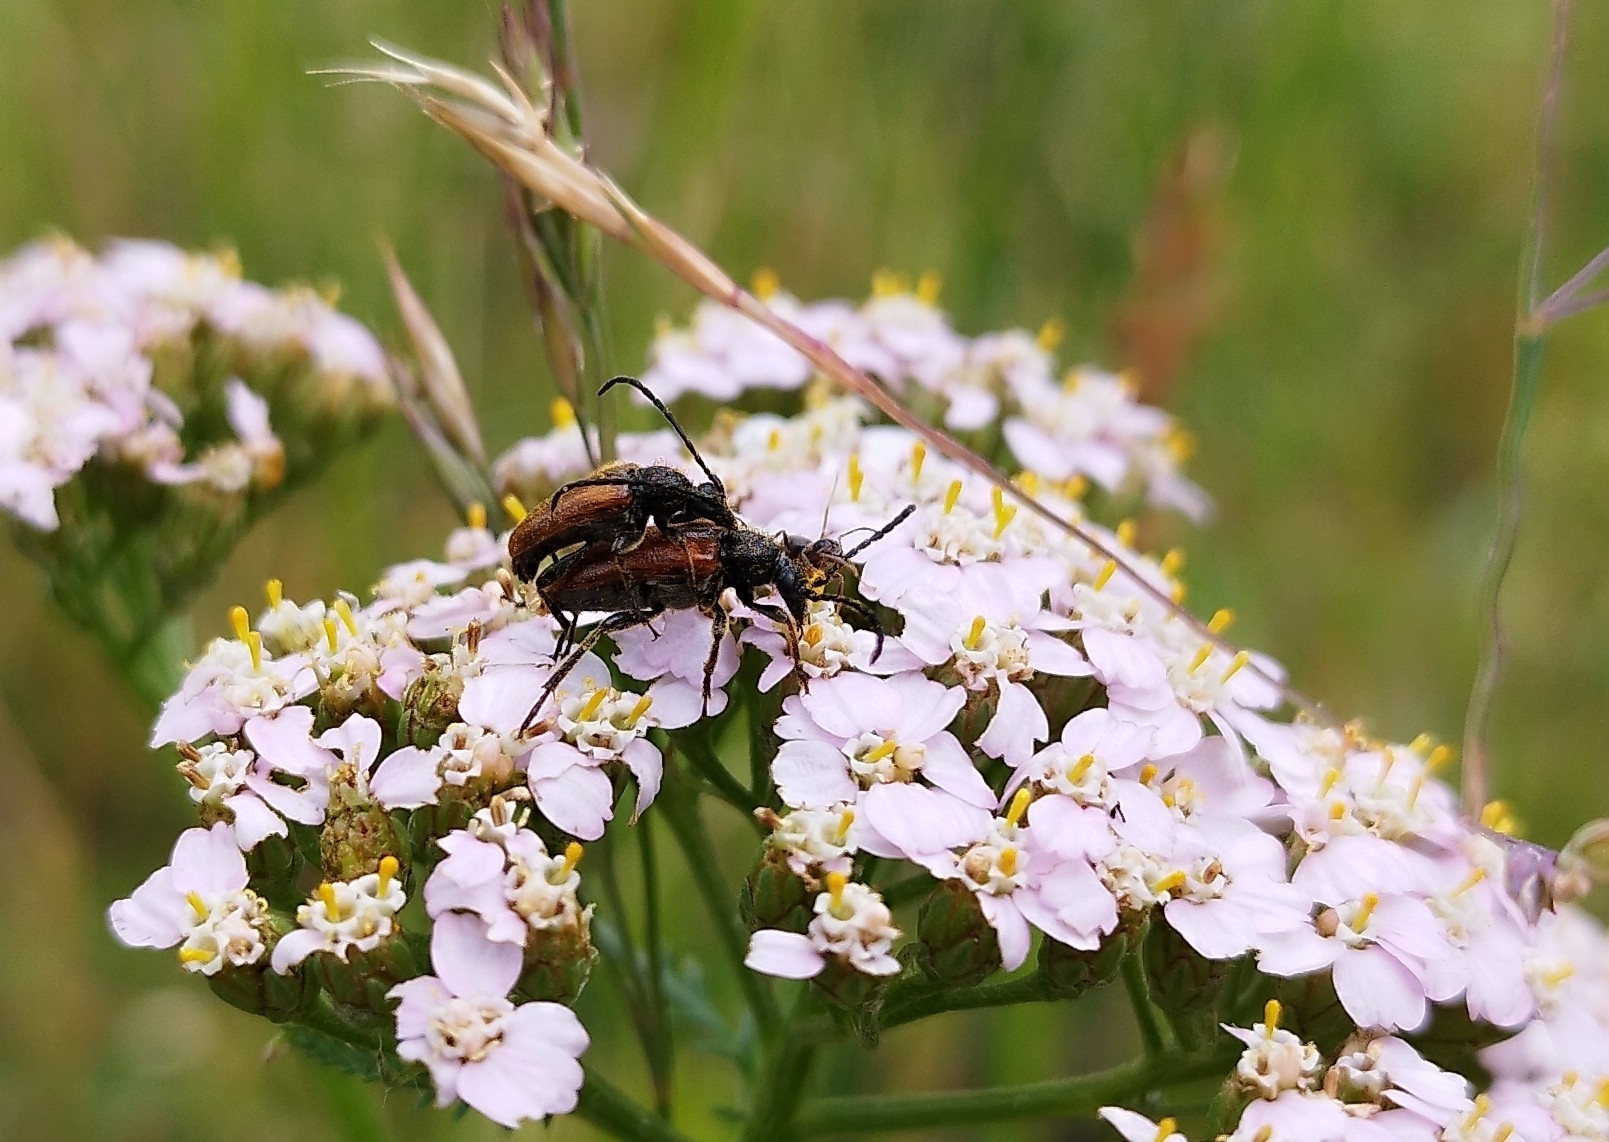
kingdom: Animalia
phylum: Arthropoda
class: Insecta
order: Coleoptera
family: Cerambycidae
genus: Pseudovadonia
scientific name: Pseudovadonia livida
